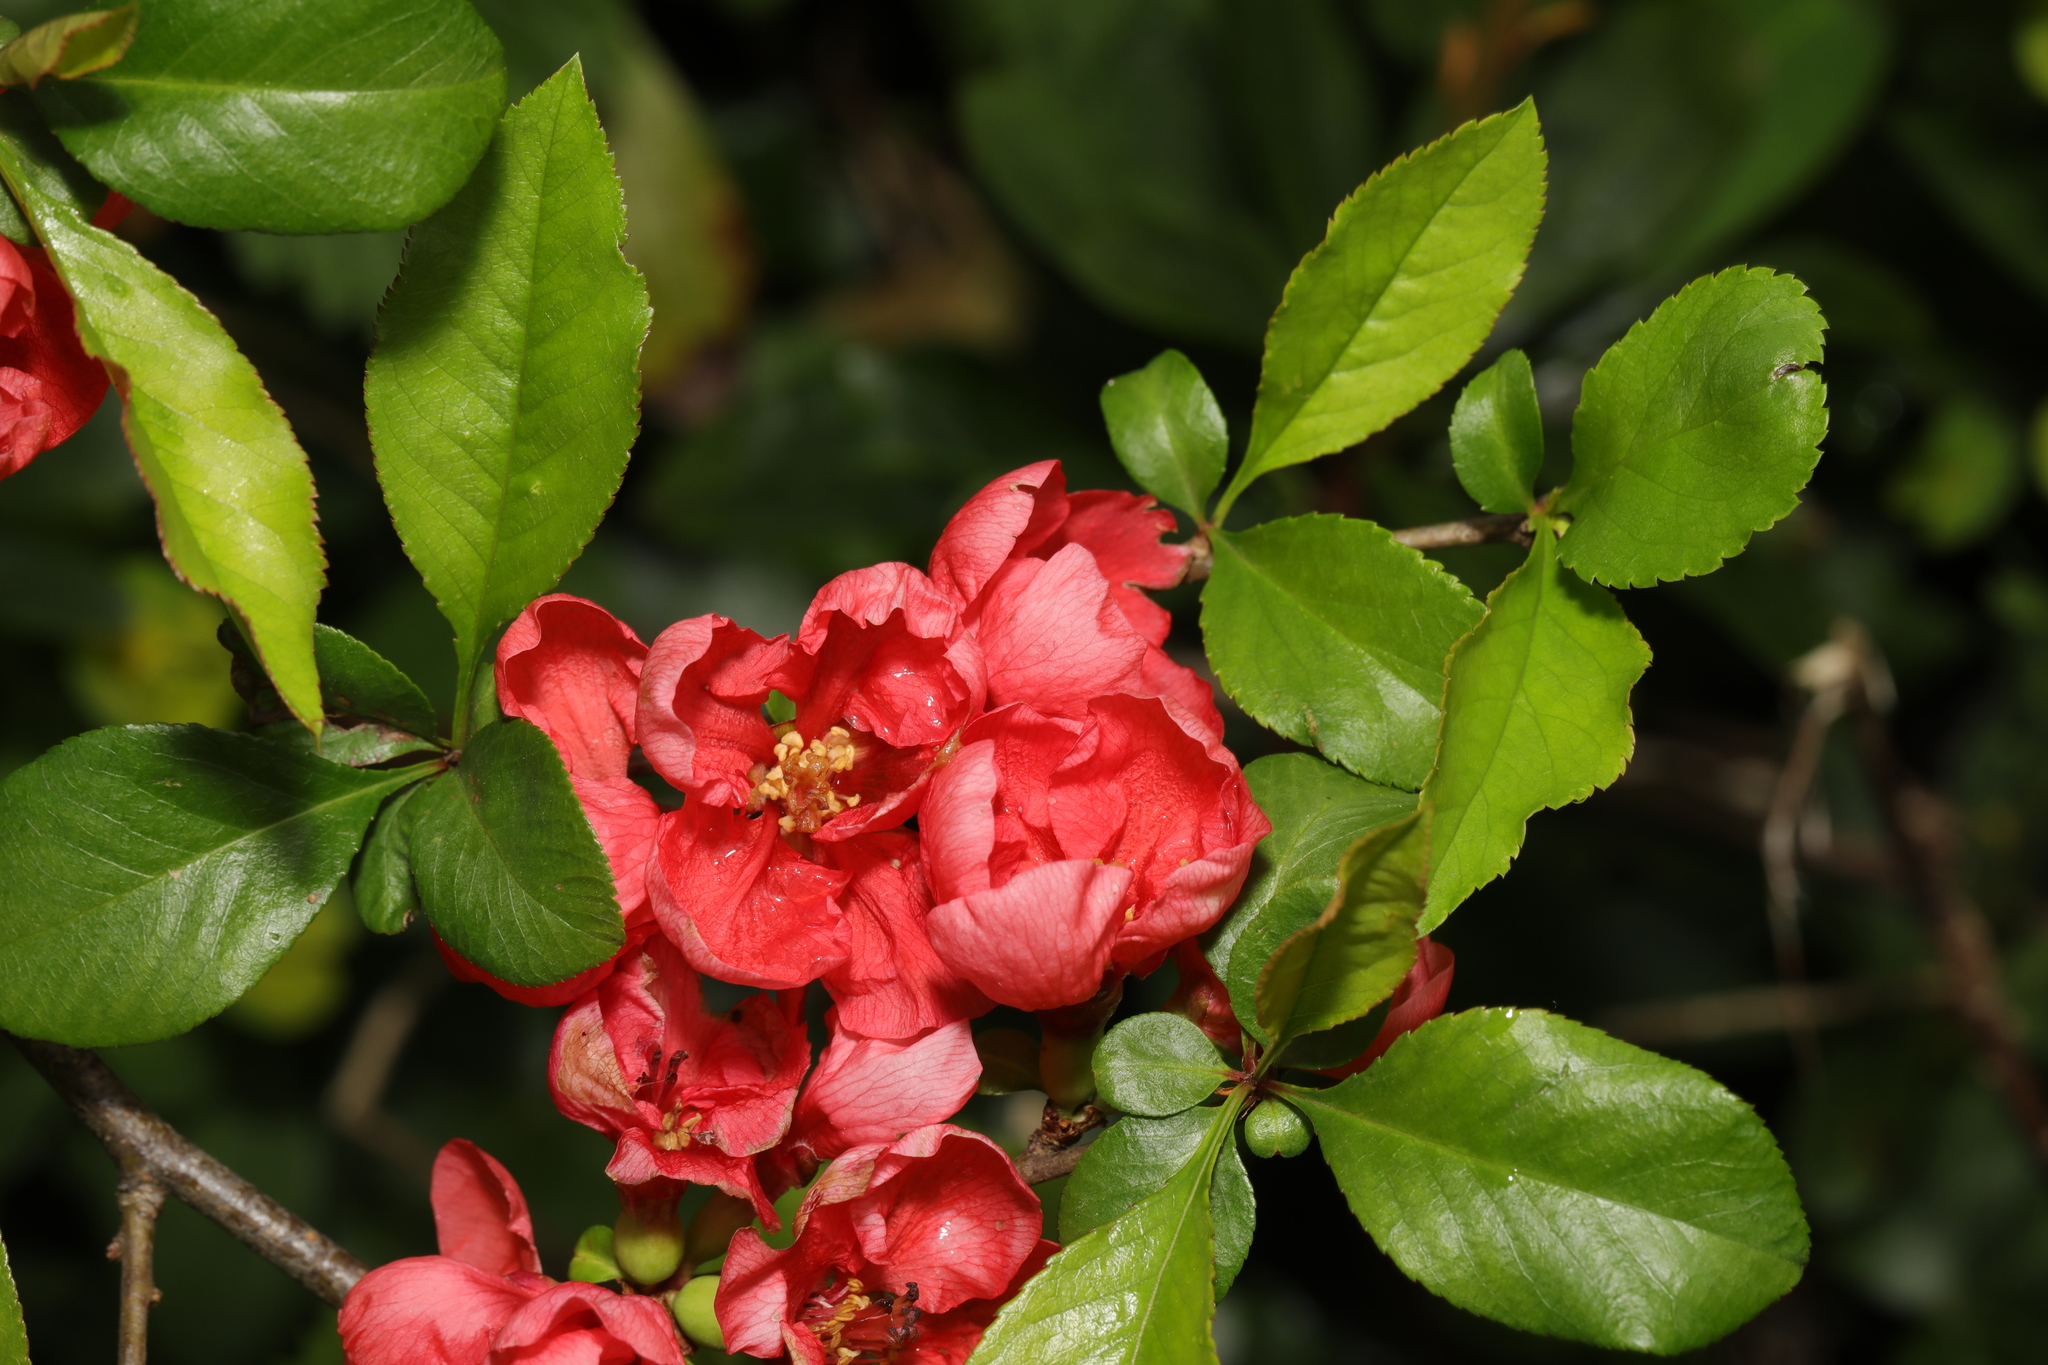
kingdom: Plantae
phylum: Tracheophyta
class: Magnoliopsida
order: Rosales
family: Rosaceae
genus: Chaenomeles
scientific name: Chaenomeles speciosa
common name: Japanese quince
